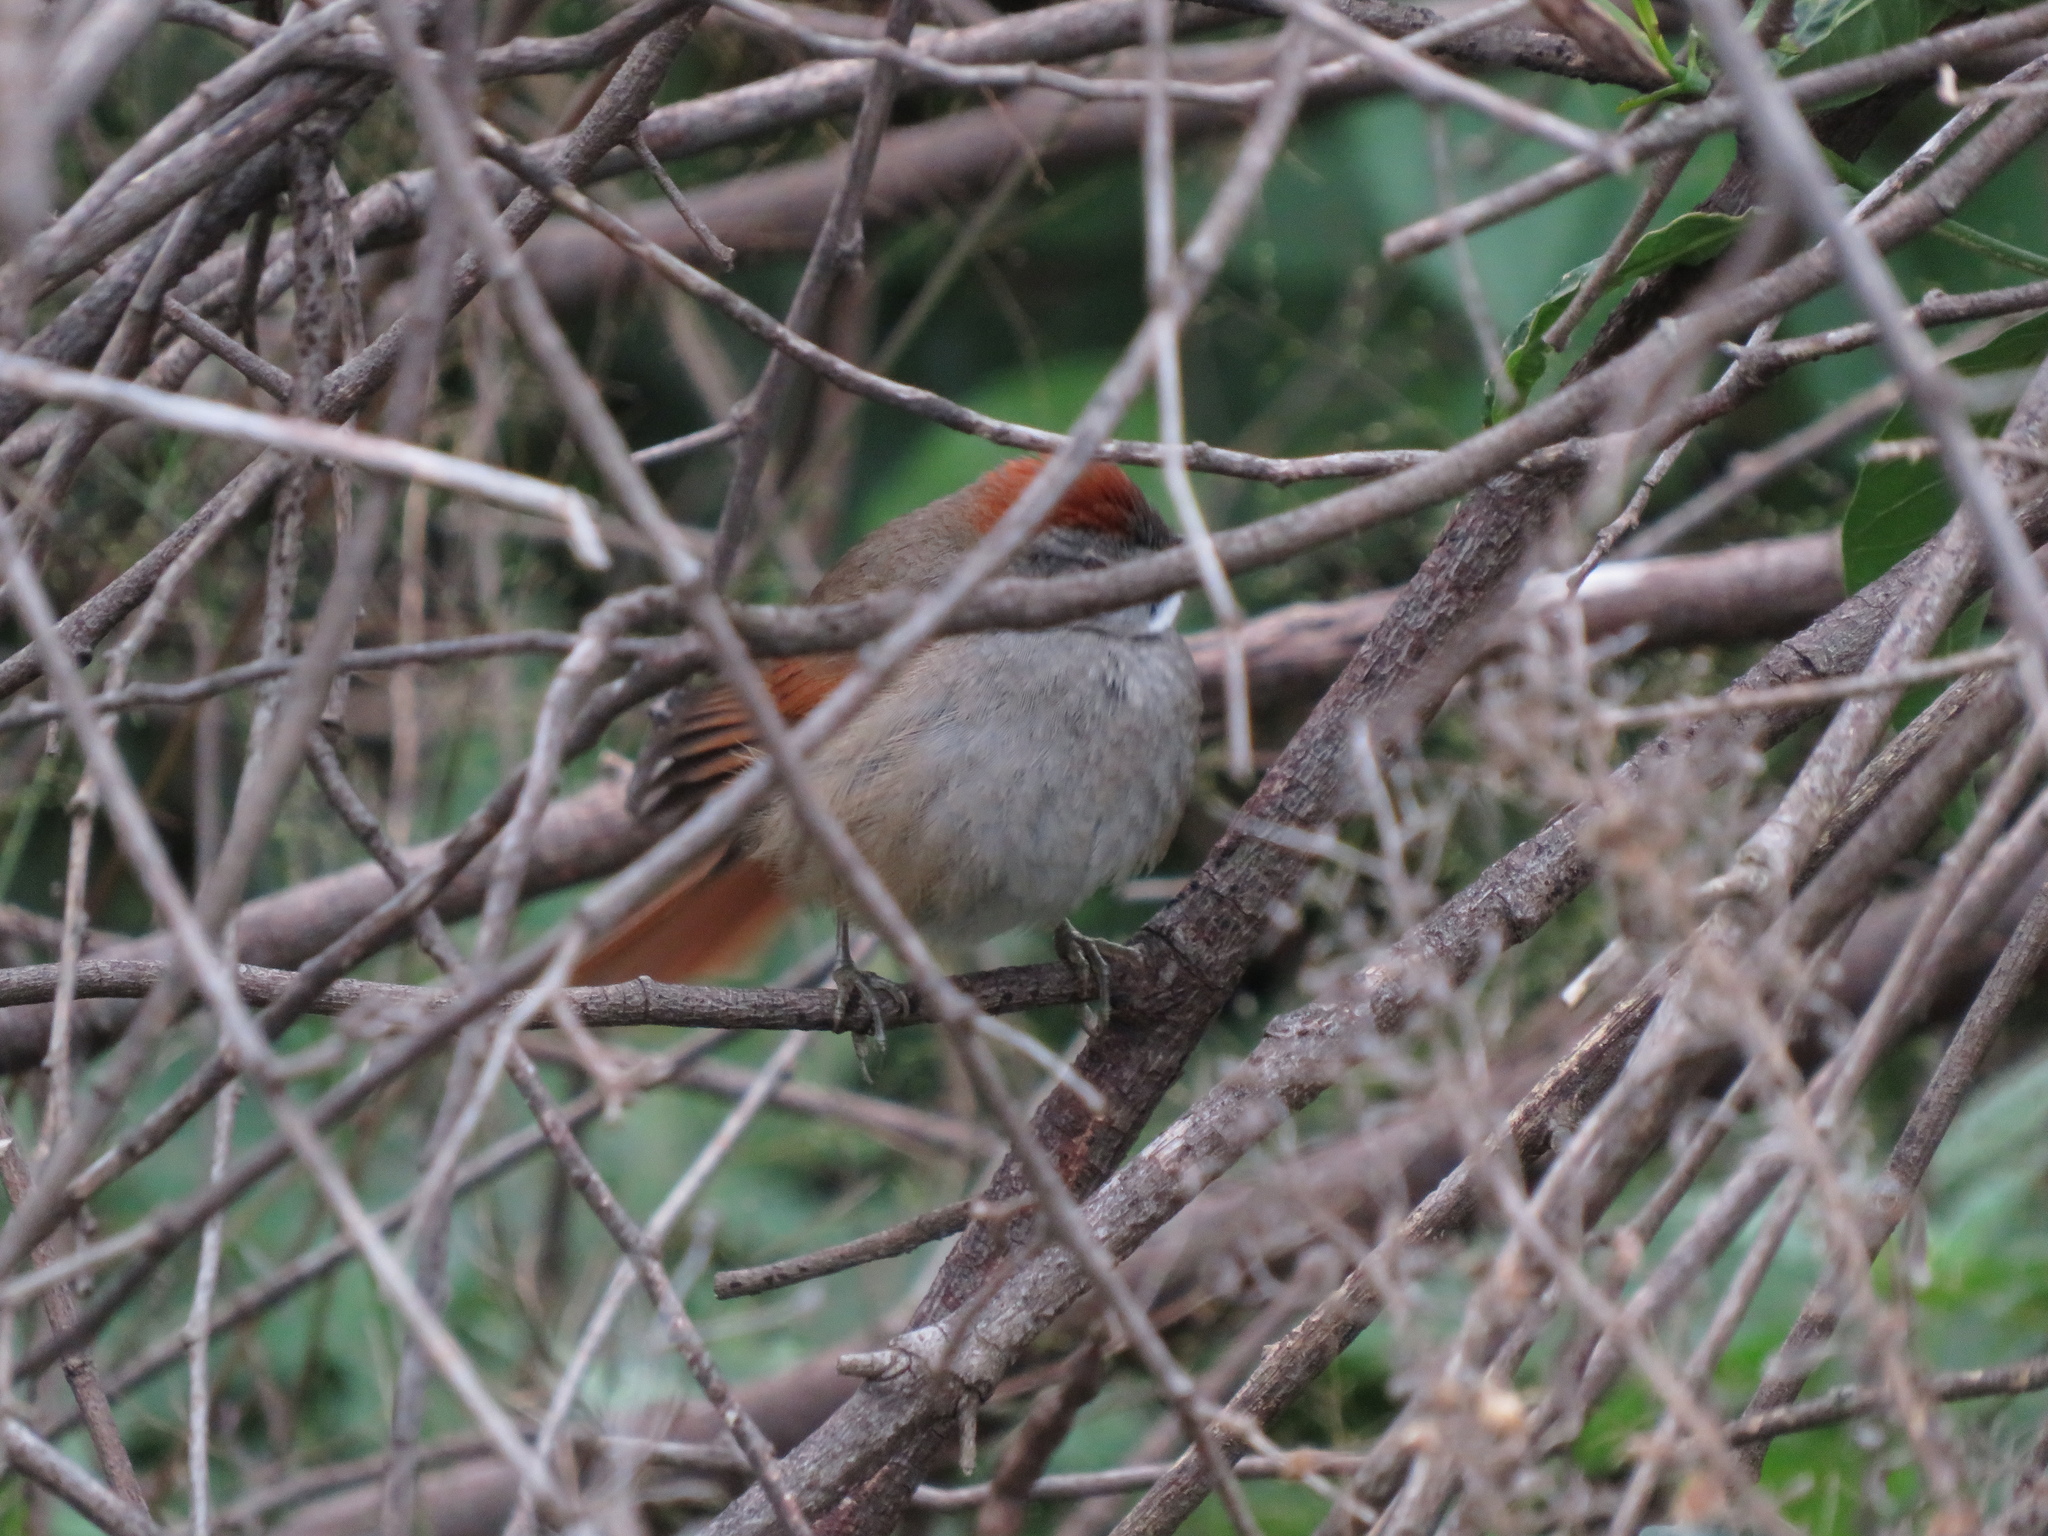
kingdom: Animalia
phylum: Chordata
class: Aves
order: Passeriformes
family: Furnariidae
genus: Synallaxis
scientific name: Synallaxis frontalis
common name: Sooty-fronted spinetail
